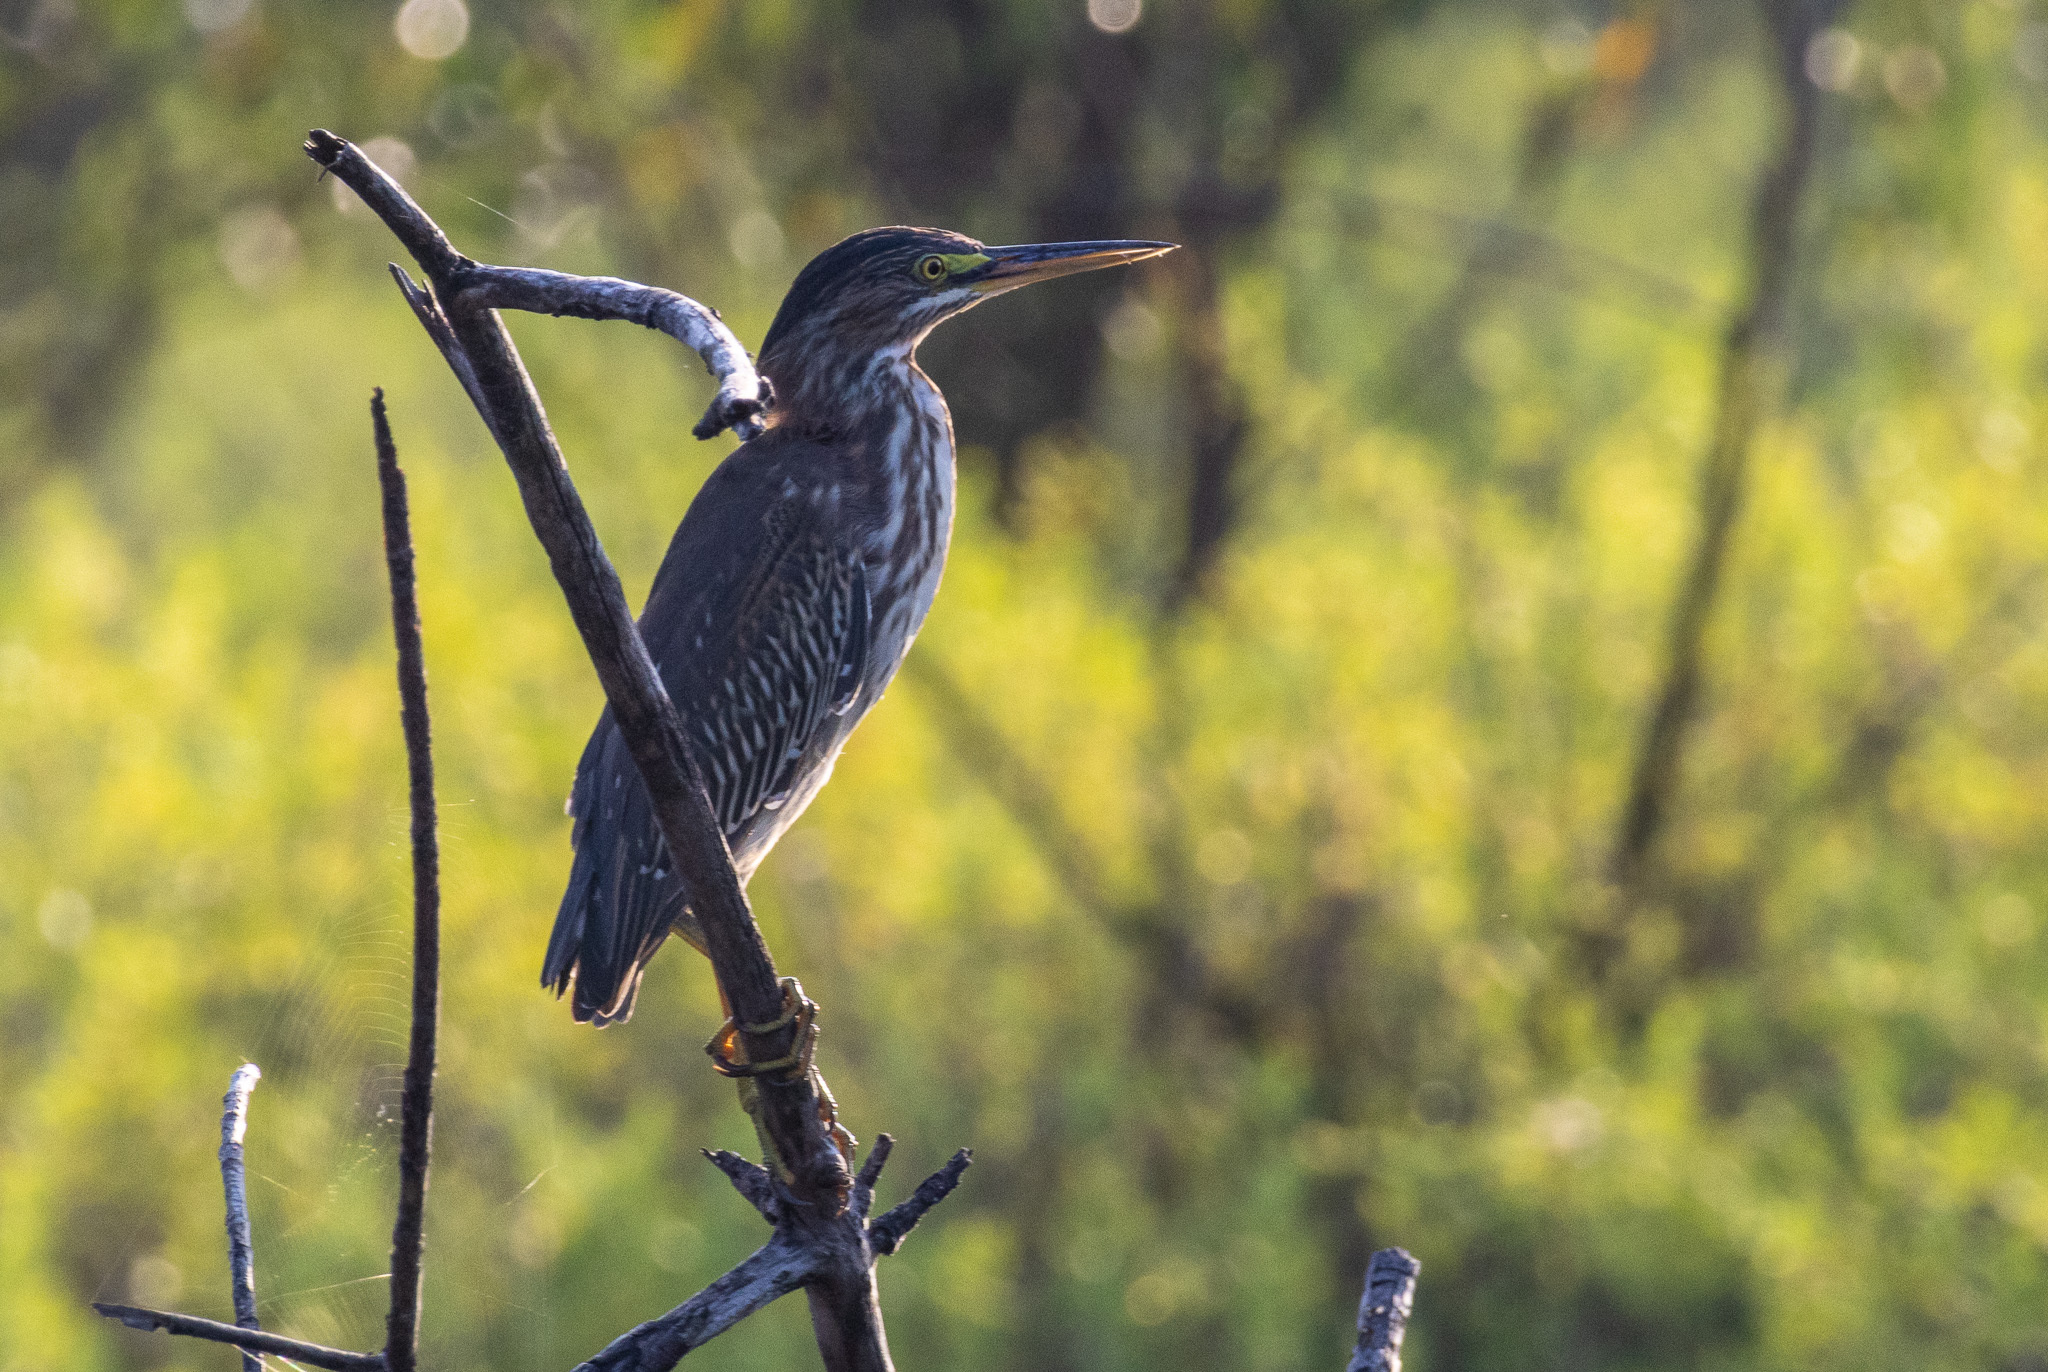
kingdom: Animalia
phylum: Chordata
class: Aves
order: Pelecaniformes
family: Ardeidae
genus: Butorides
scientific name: Butorides virescens
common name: Green heron
